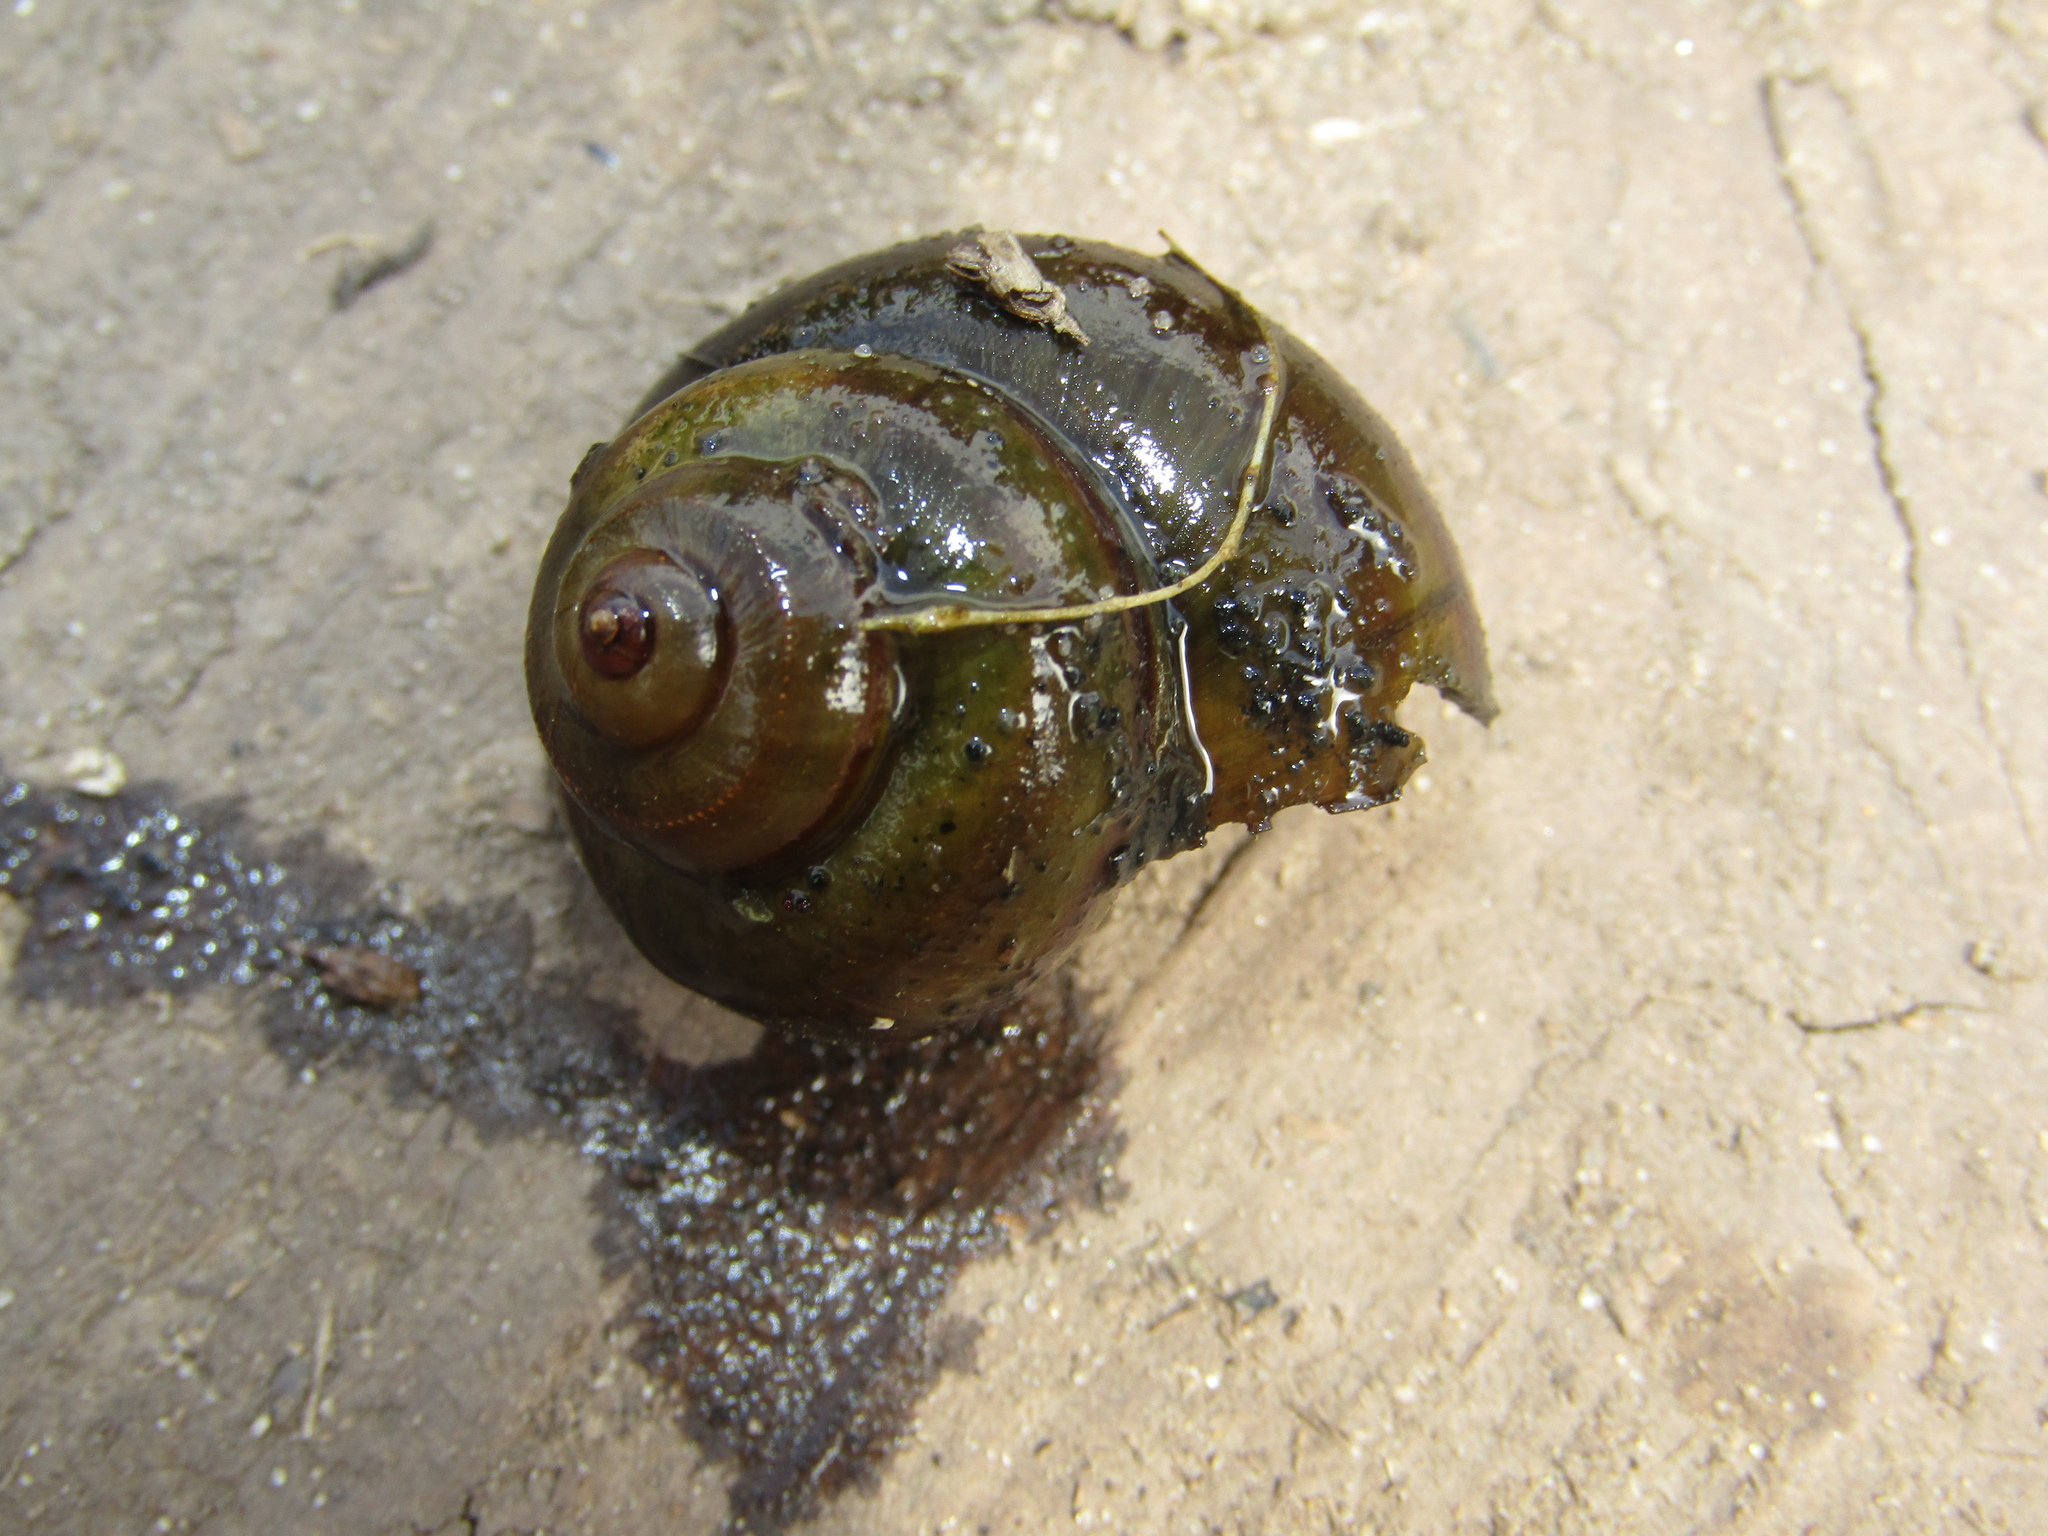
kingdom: Animalia
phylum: Mollusca
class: Gastropoda
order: Architaenioglossa
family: Viviparidae
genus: Viviparus
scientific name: Viviparus contectus
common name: Lister's river snail
